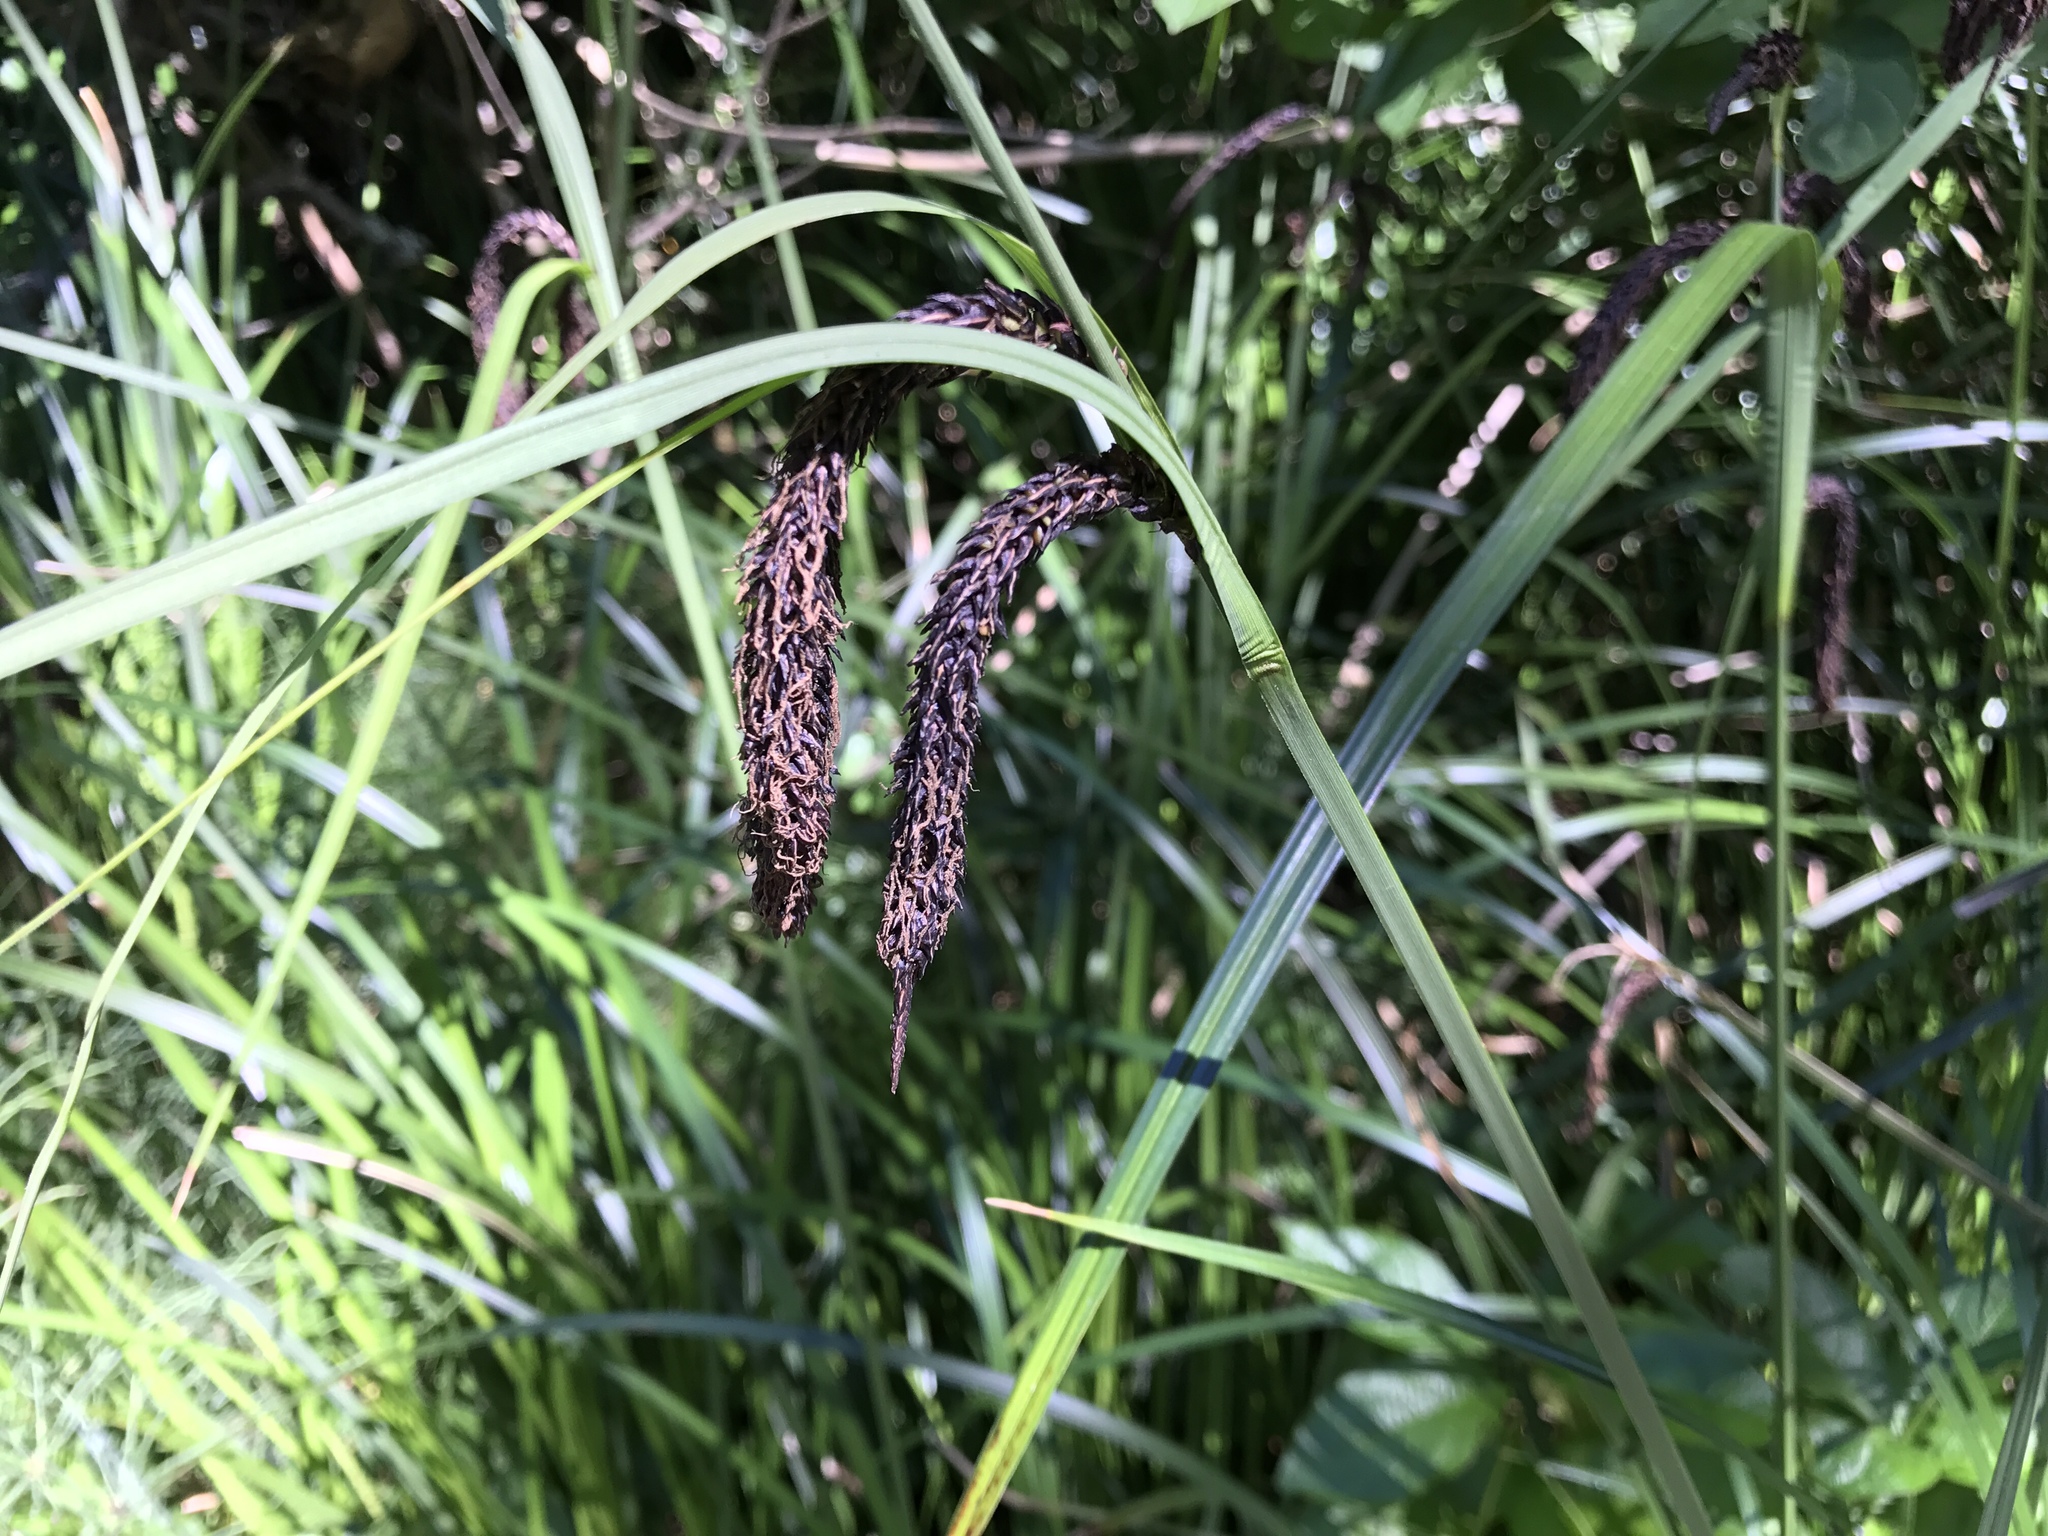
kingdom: Plantae
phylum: Tracheophyta
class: Liliopsida
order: Poales
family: Cyperaceae
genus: Carex
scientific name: Carex obnupta
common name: Slough sedge
